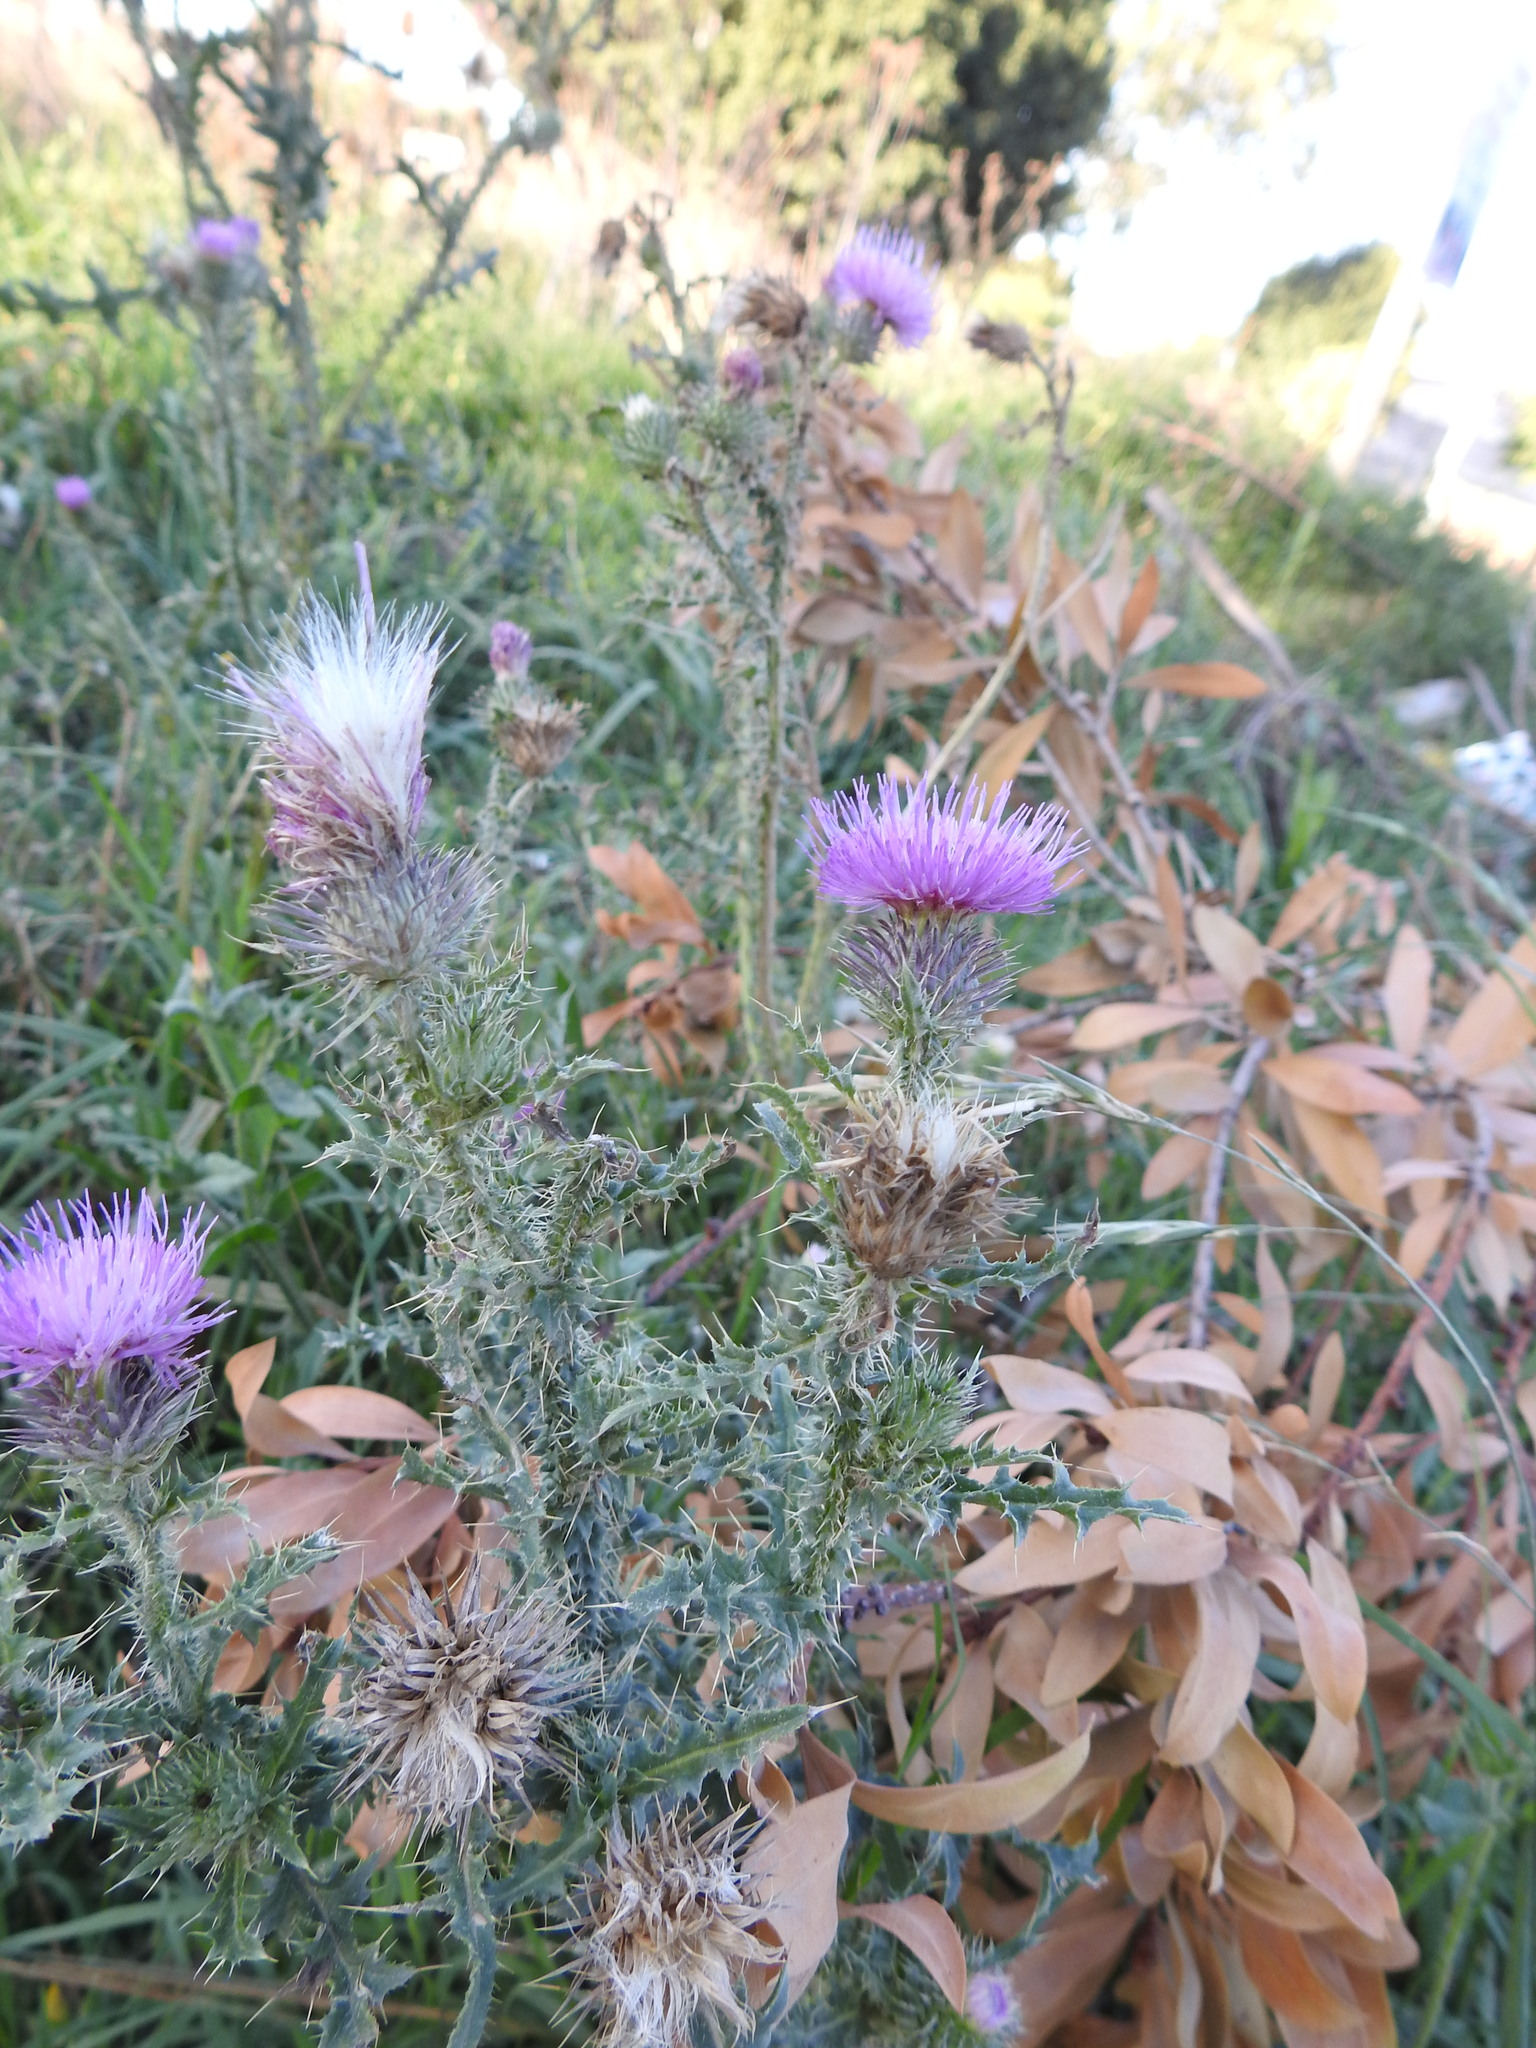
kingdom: Plantae
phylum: Tracheophyta
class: Magnoliopsida
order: Asterales
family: Asteraceae
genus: Carduus
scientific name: Carduus acanthoides
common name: Plumeless thistle
